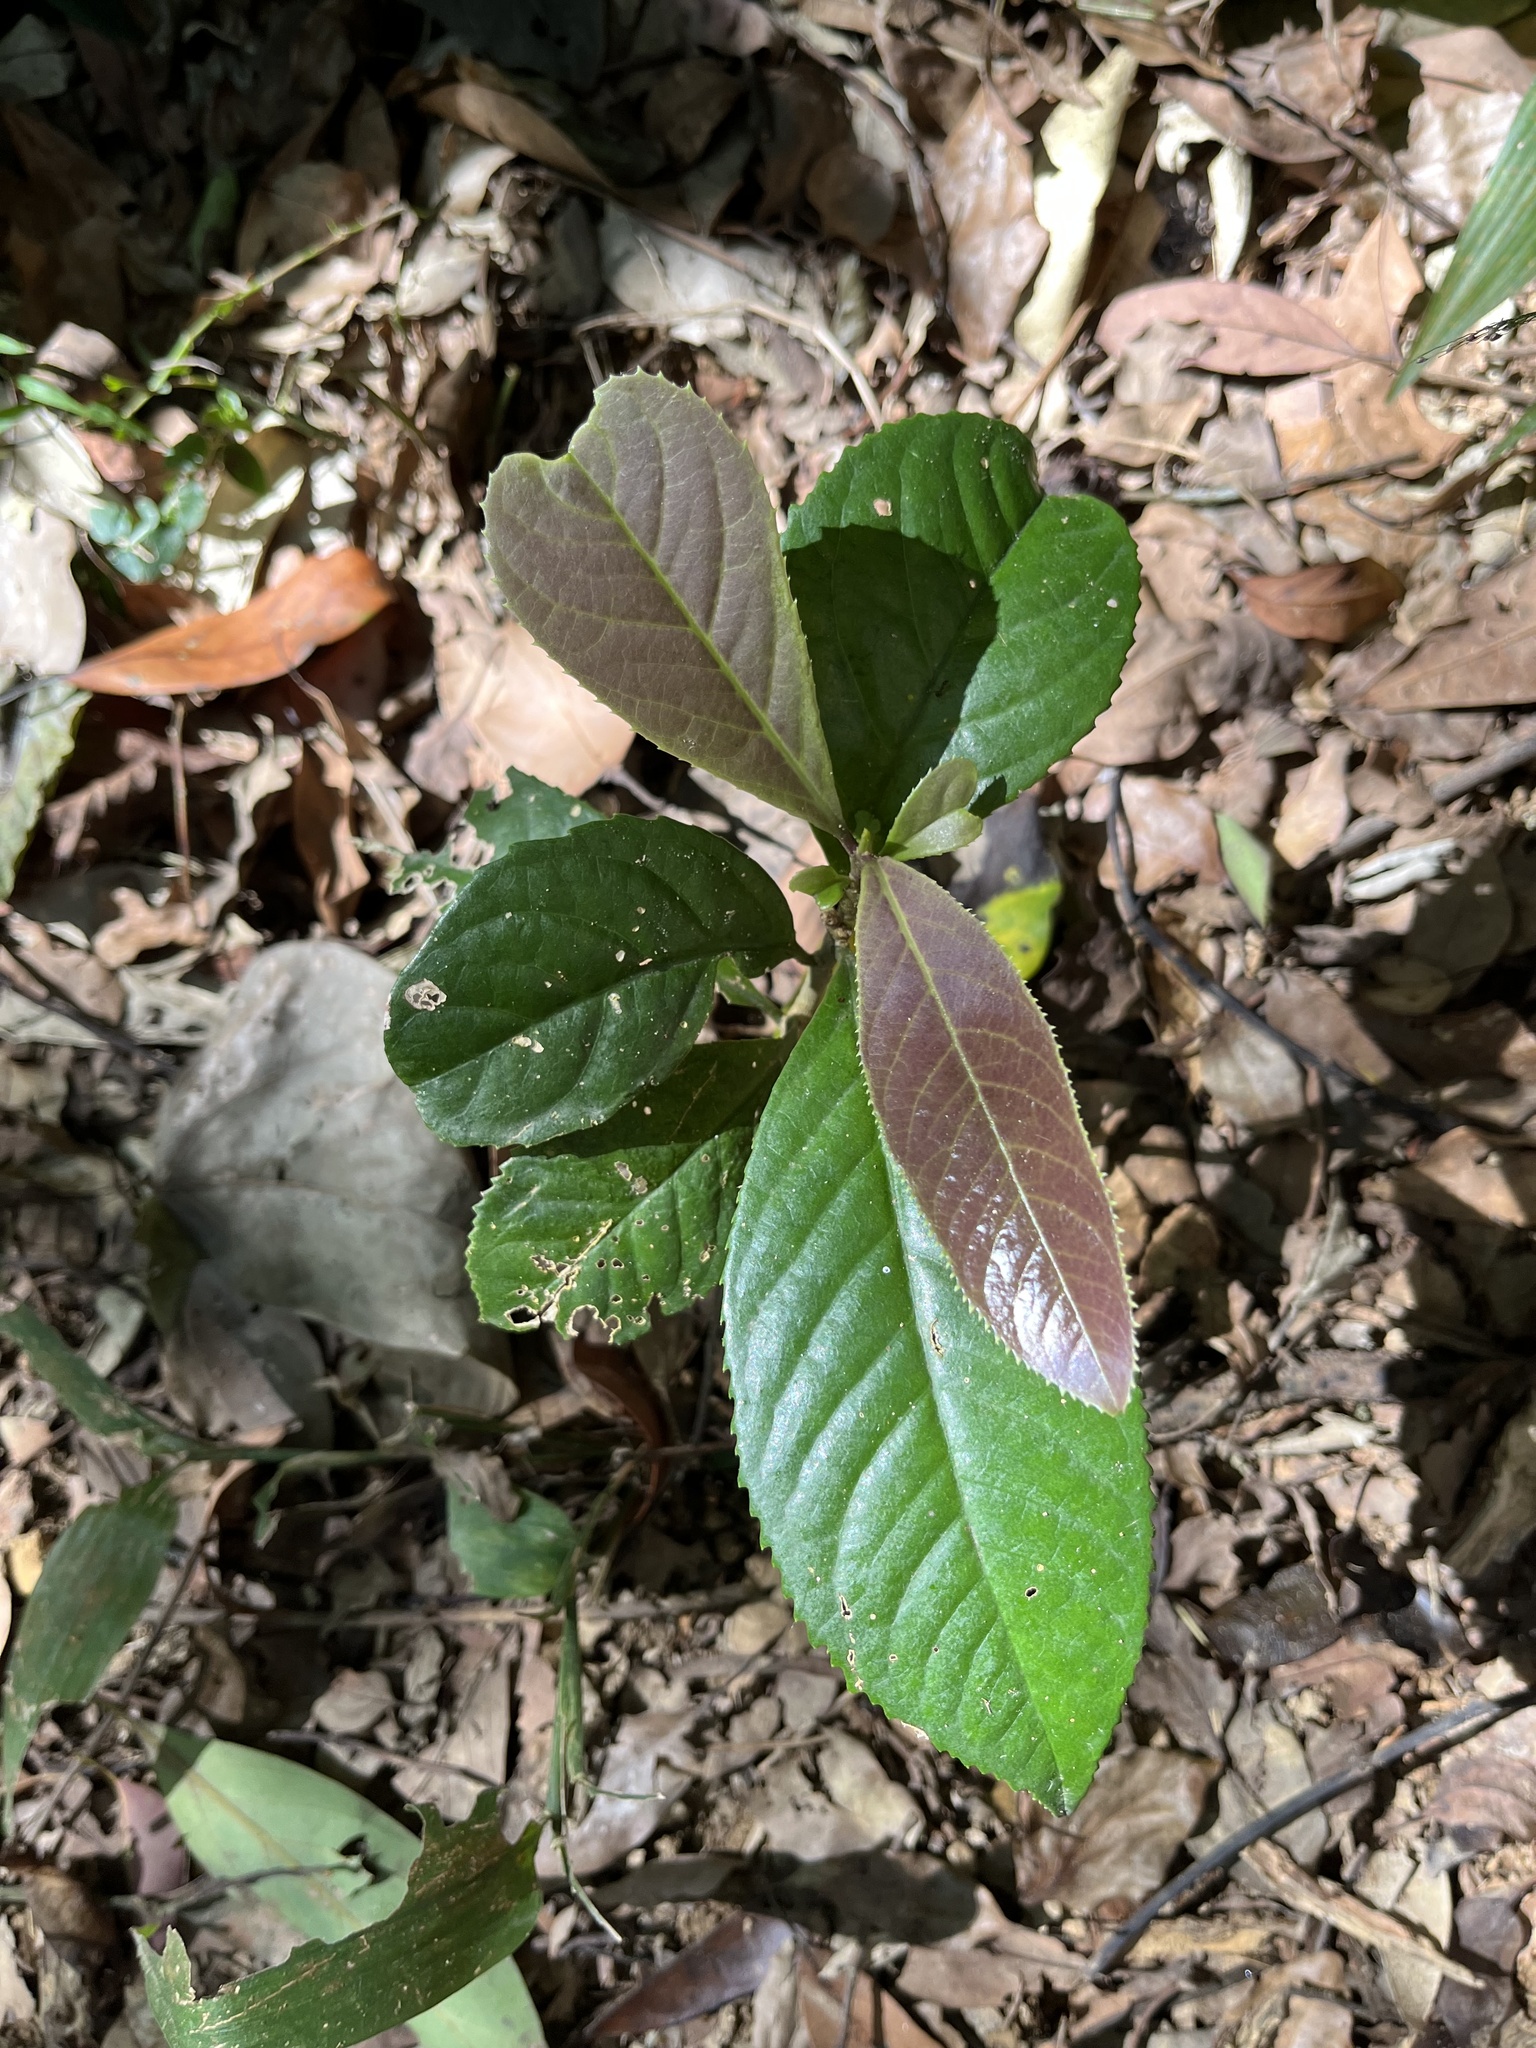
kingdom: Plantae
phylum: Tracheophyta
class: Magnoliopsida
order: Ericales
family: Symplocaceae
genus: Symplocos
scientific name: Symplocos acuminata
